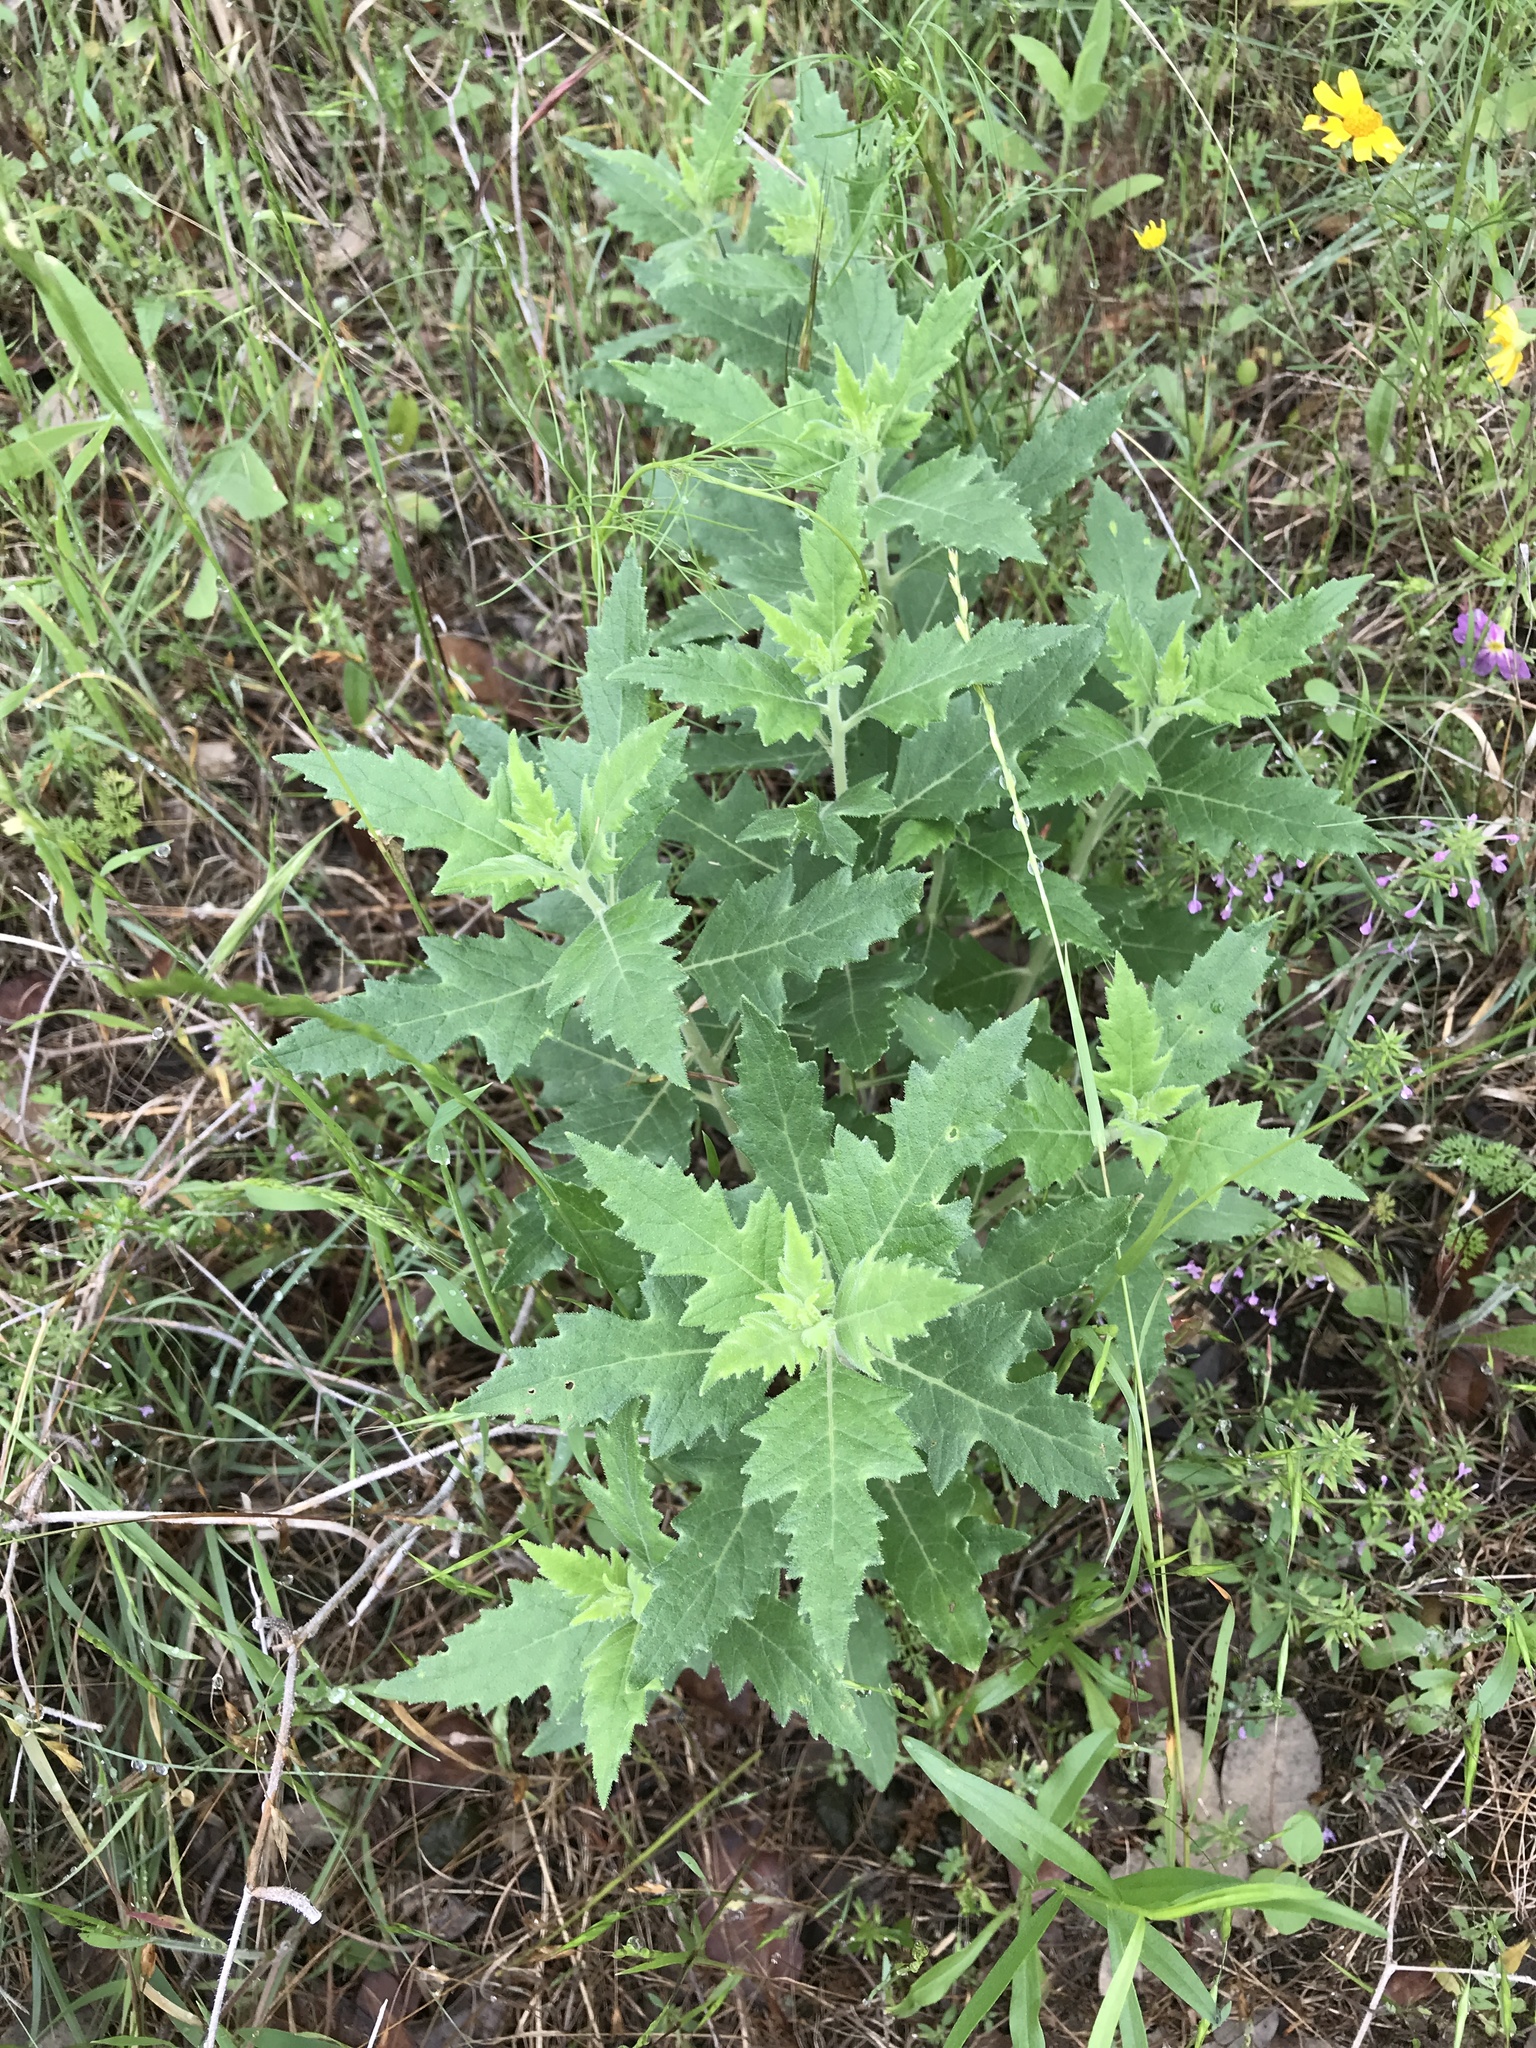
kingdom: Plantae
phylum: Tracheophyta
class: Magnoliopsida
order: Cornales
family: Loasaceae
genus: Mentzelia
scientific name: Mentzelia oligosperma
